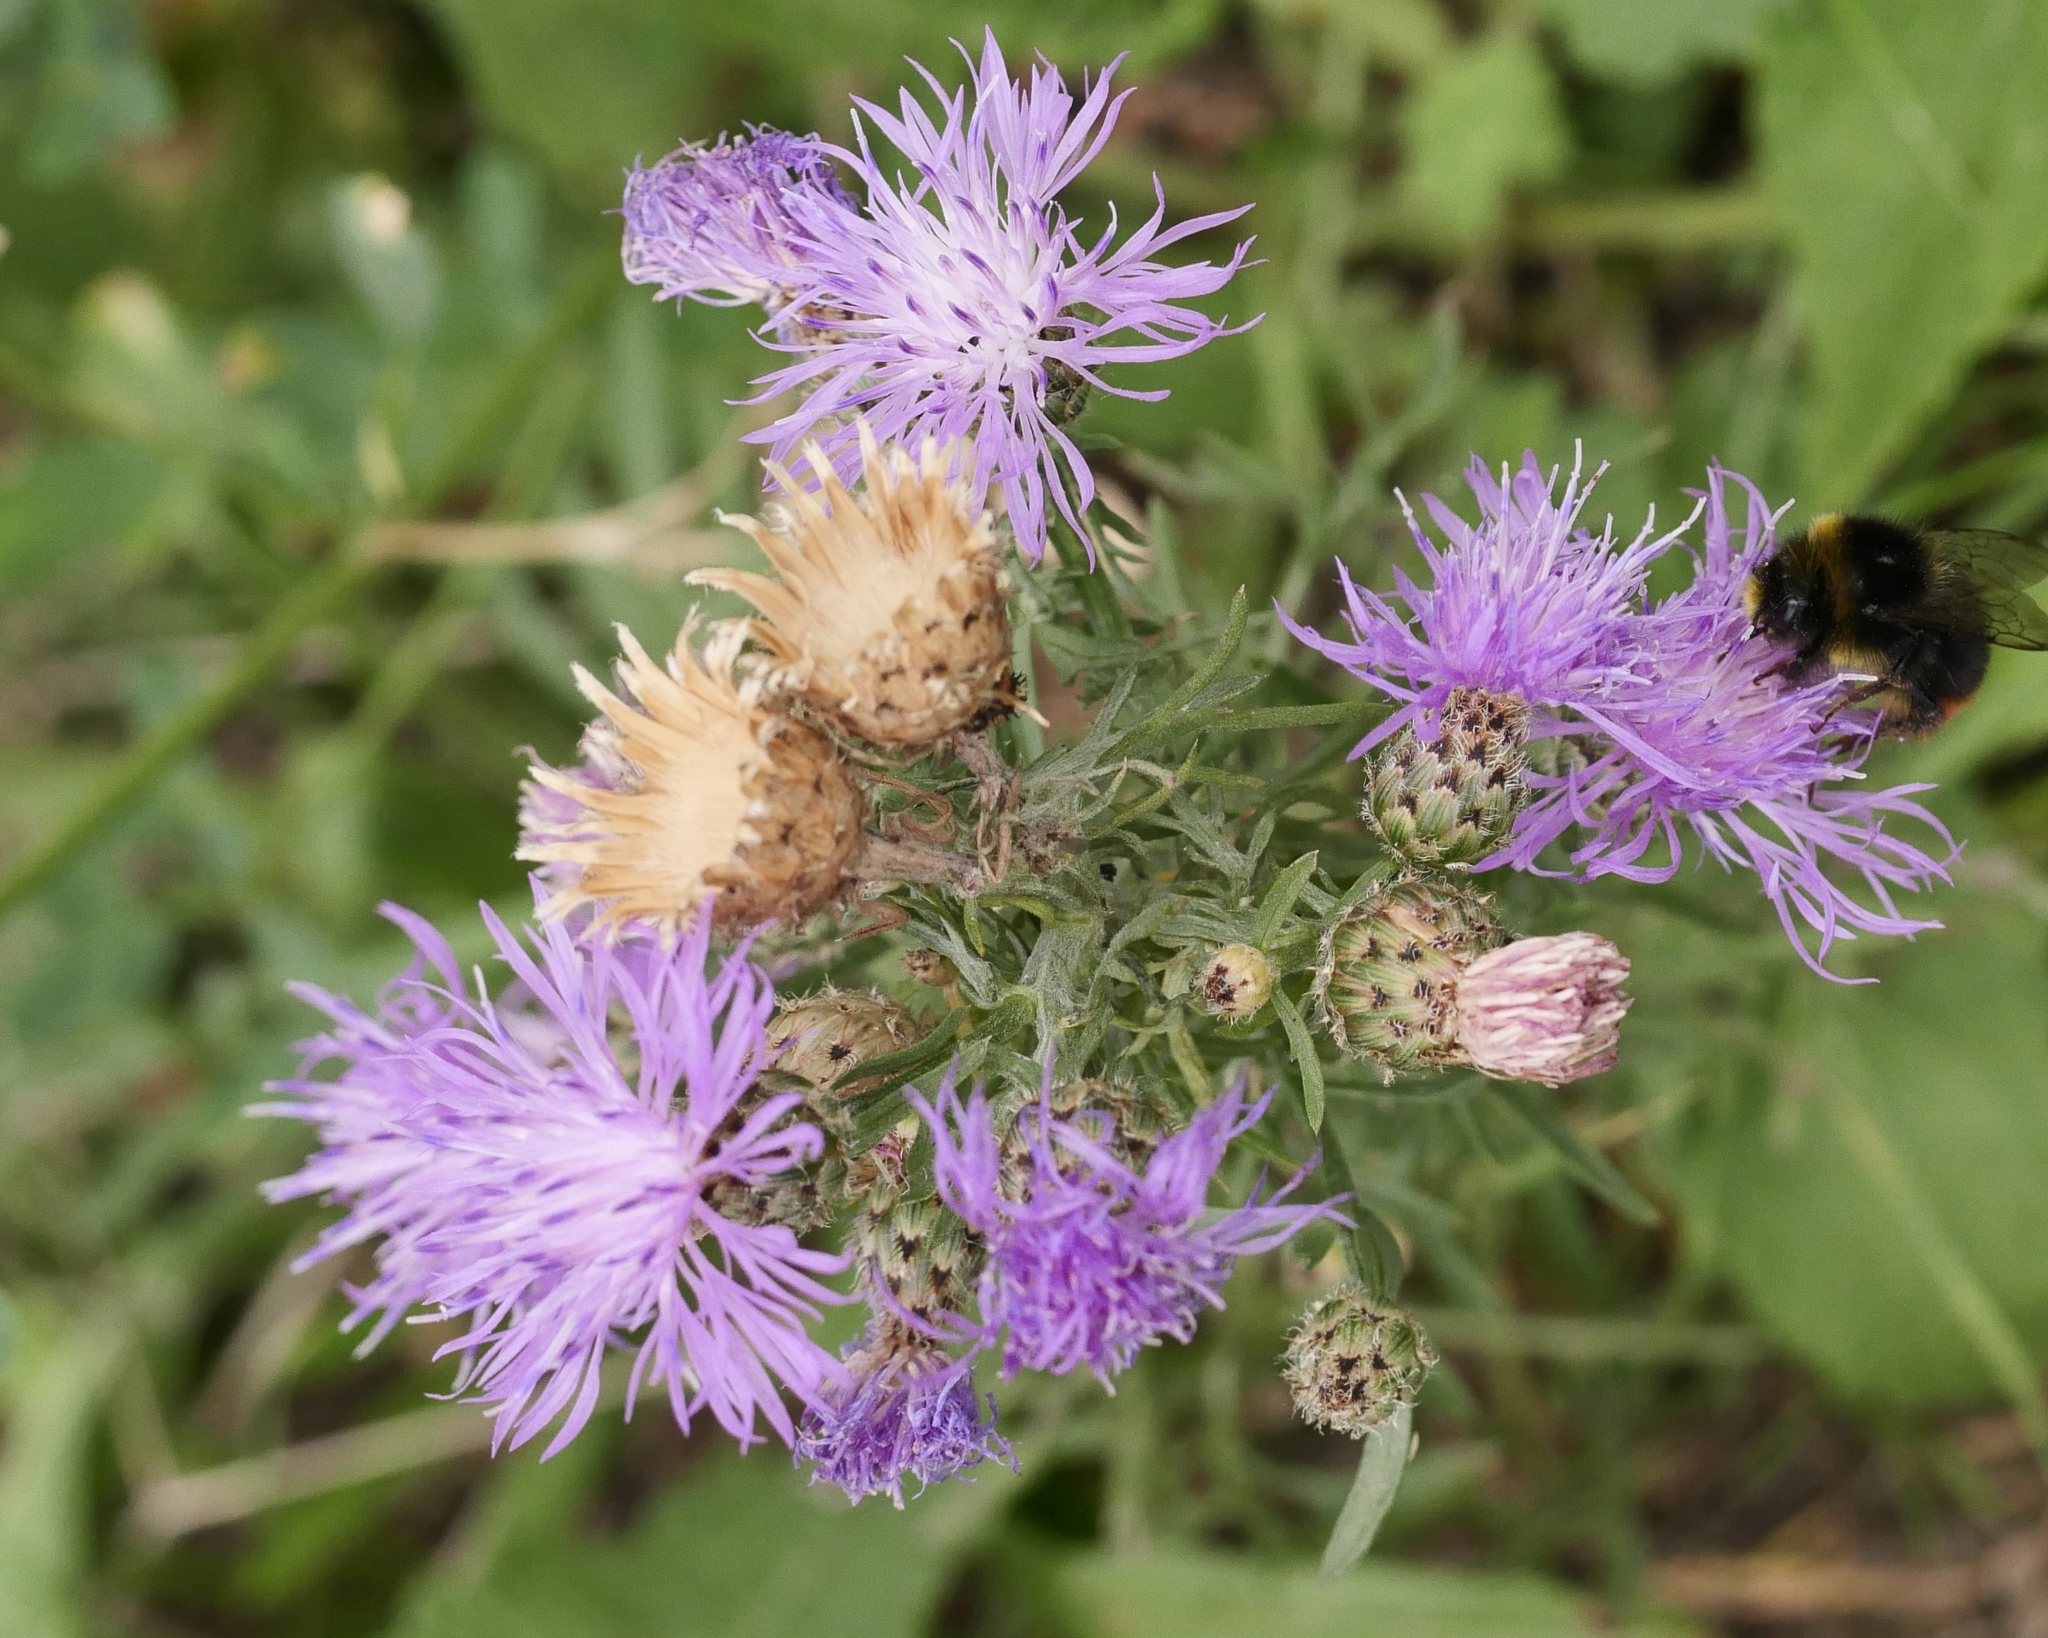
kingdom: Plantae
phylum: Tracheophyta
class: Magnoliopsida
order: Asterales
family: Asteraceae
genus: Centaurea
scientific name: Centaurea stoebe
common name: Spotted knapweed
